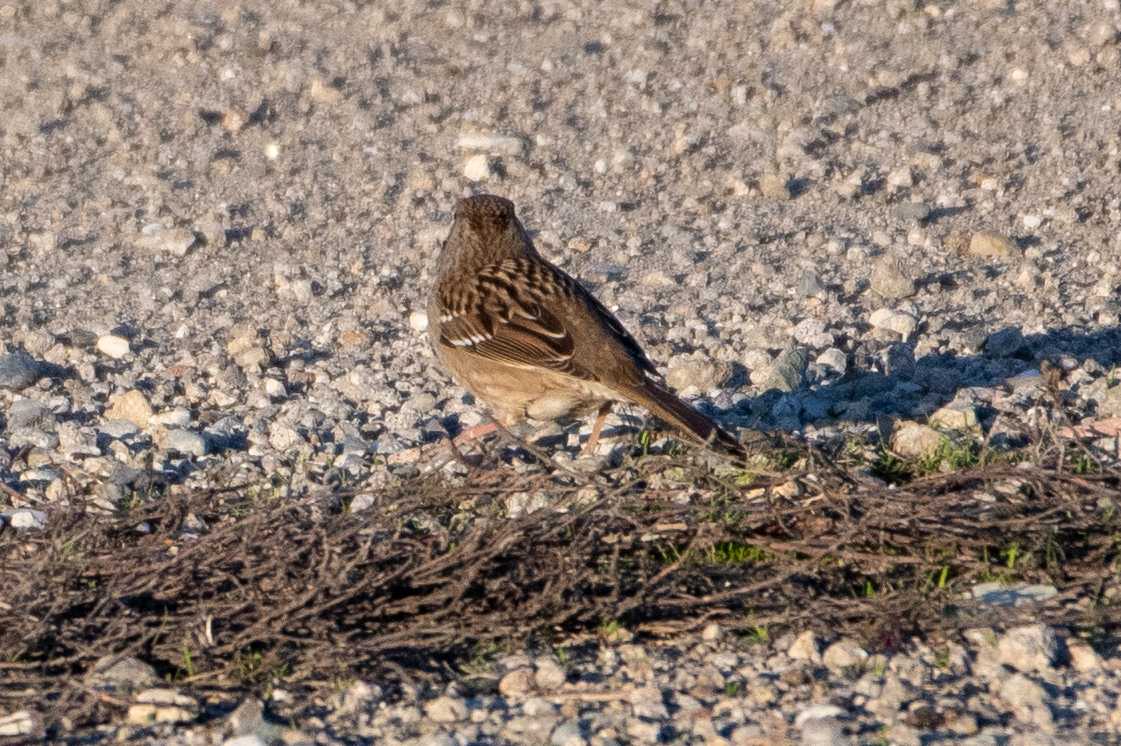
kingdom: Animalia
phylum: Chordata
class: Aves
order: Passeriformes
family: Passerellidae
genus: Zonotrichia
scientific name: Zonotrichia atricapilla
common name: Golden-crowned sparrow
